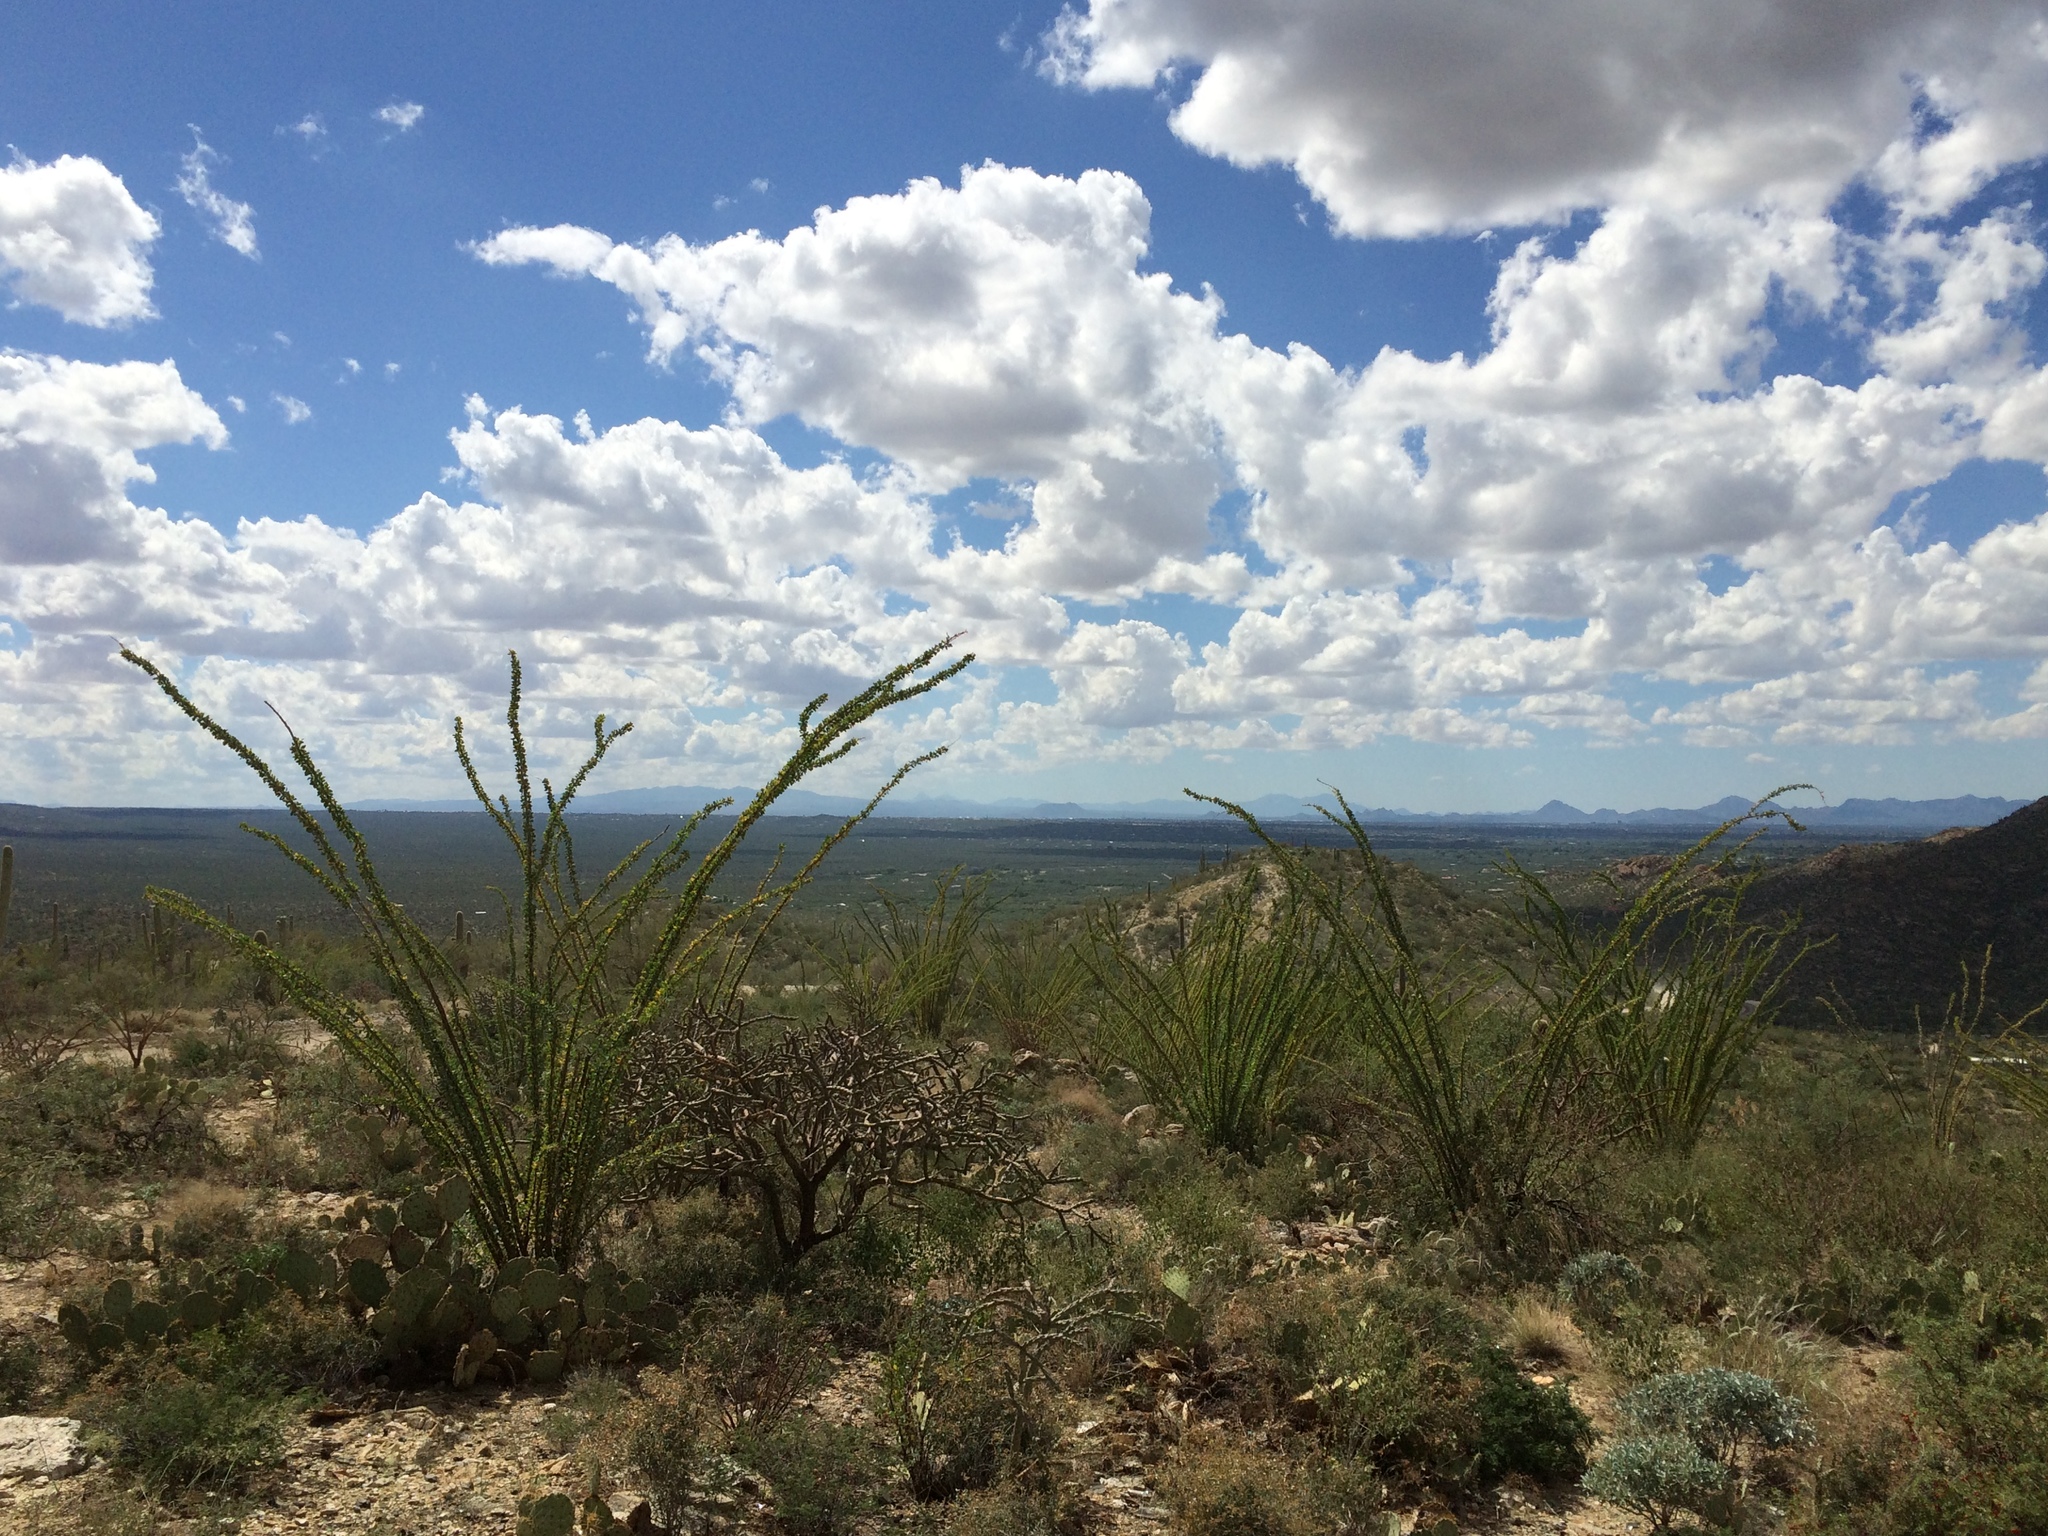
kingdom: Plantae
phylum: Tracheophyta
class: Magnoliopsida
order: Ericales
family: Fouquieriaceae
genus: Fouquieria
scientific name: Fouquieria splendens
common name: Vine-cactus
